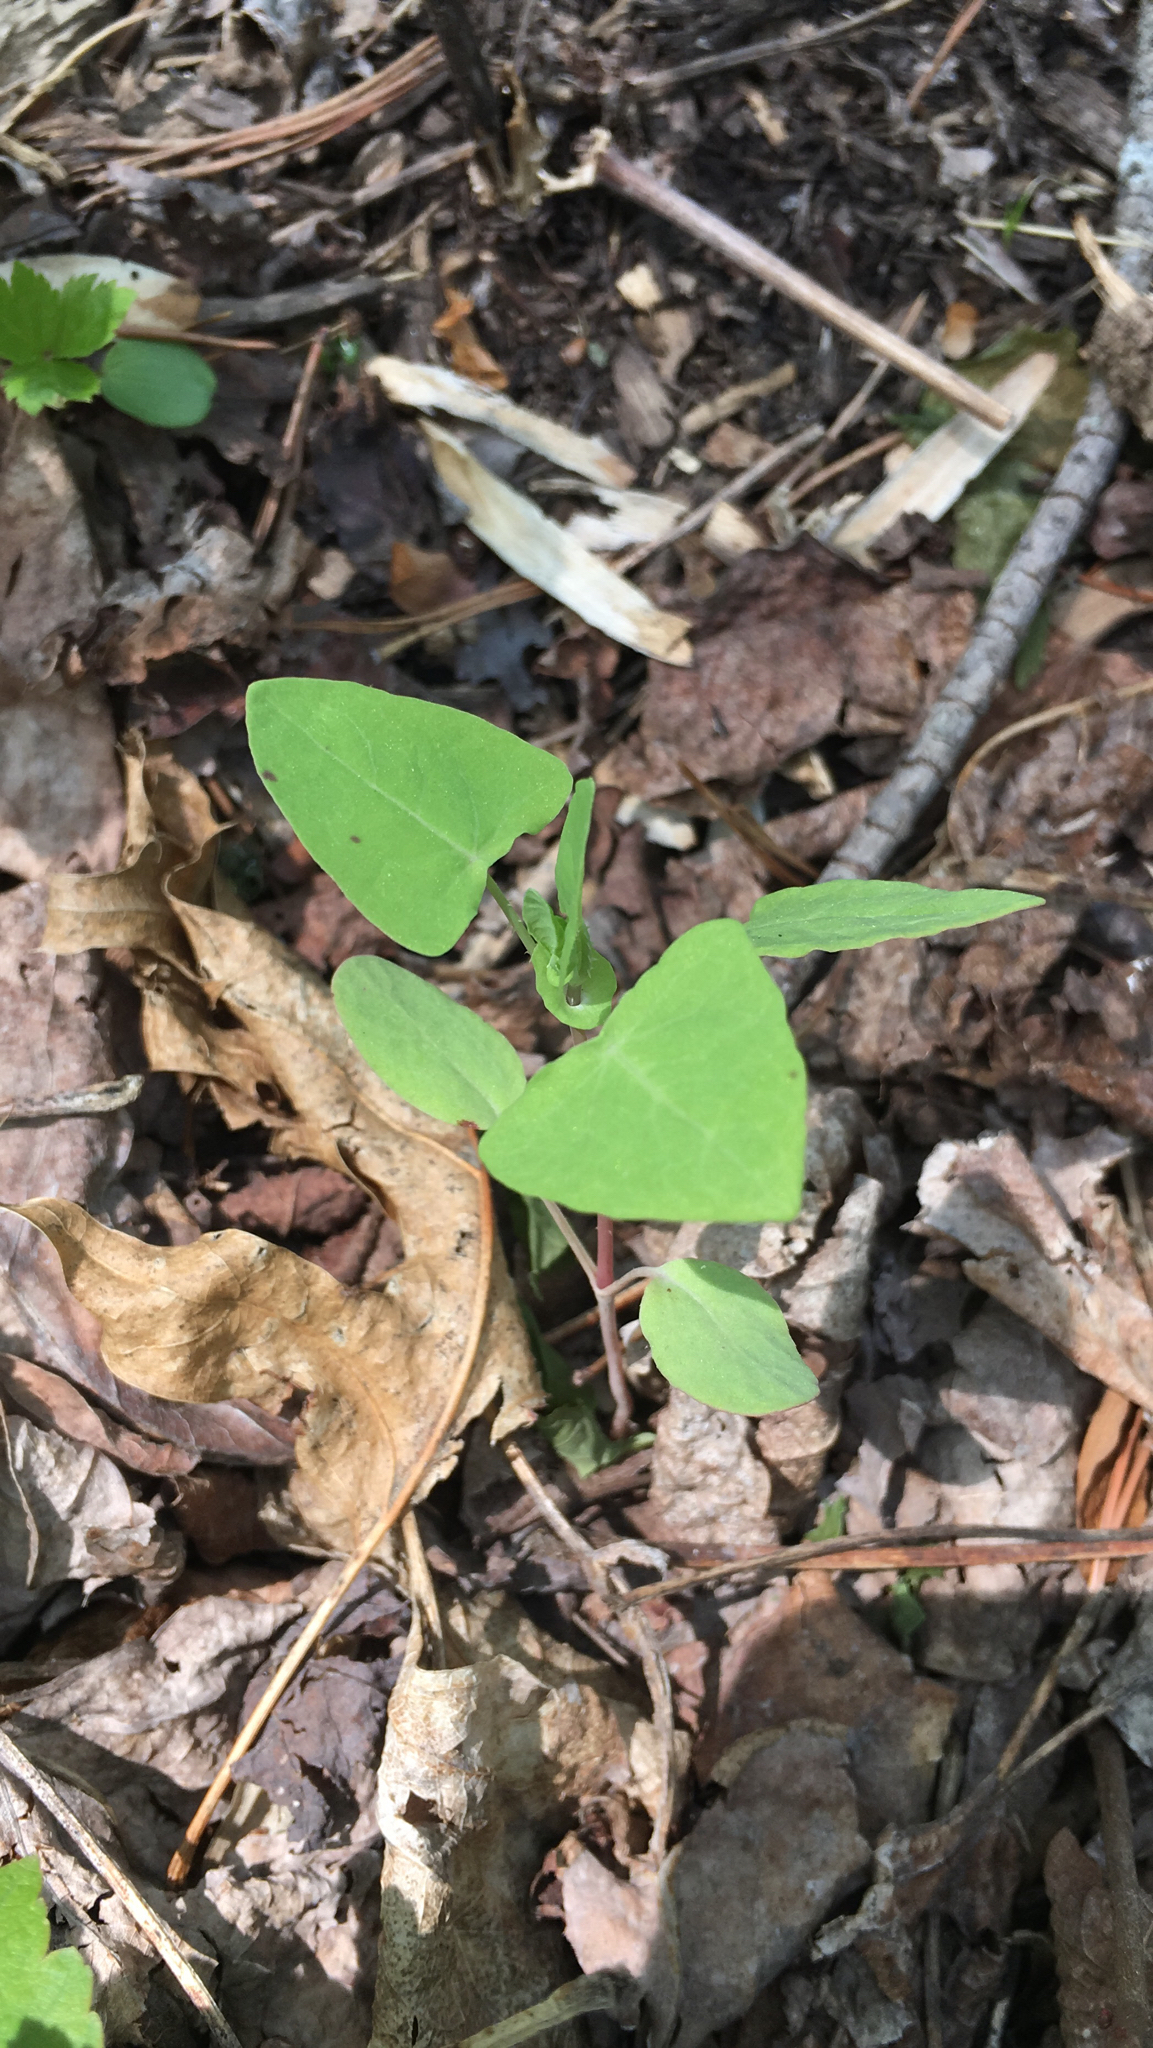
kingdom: Plantae
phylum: Tracheophyta
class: Magnoliopsida
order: Caryophyllales
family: Polygonaceae
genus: Persicaria
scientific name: Persicaria perfoliata
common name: Asiatic tearthumb
